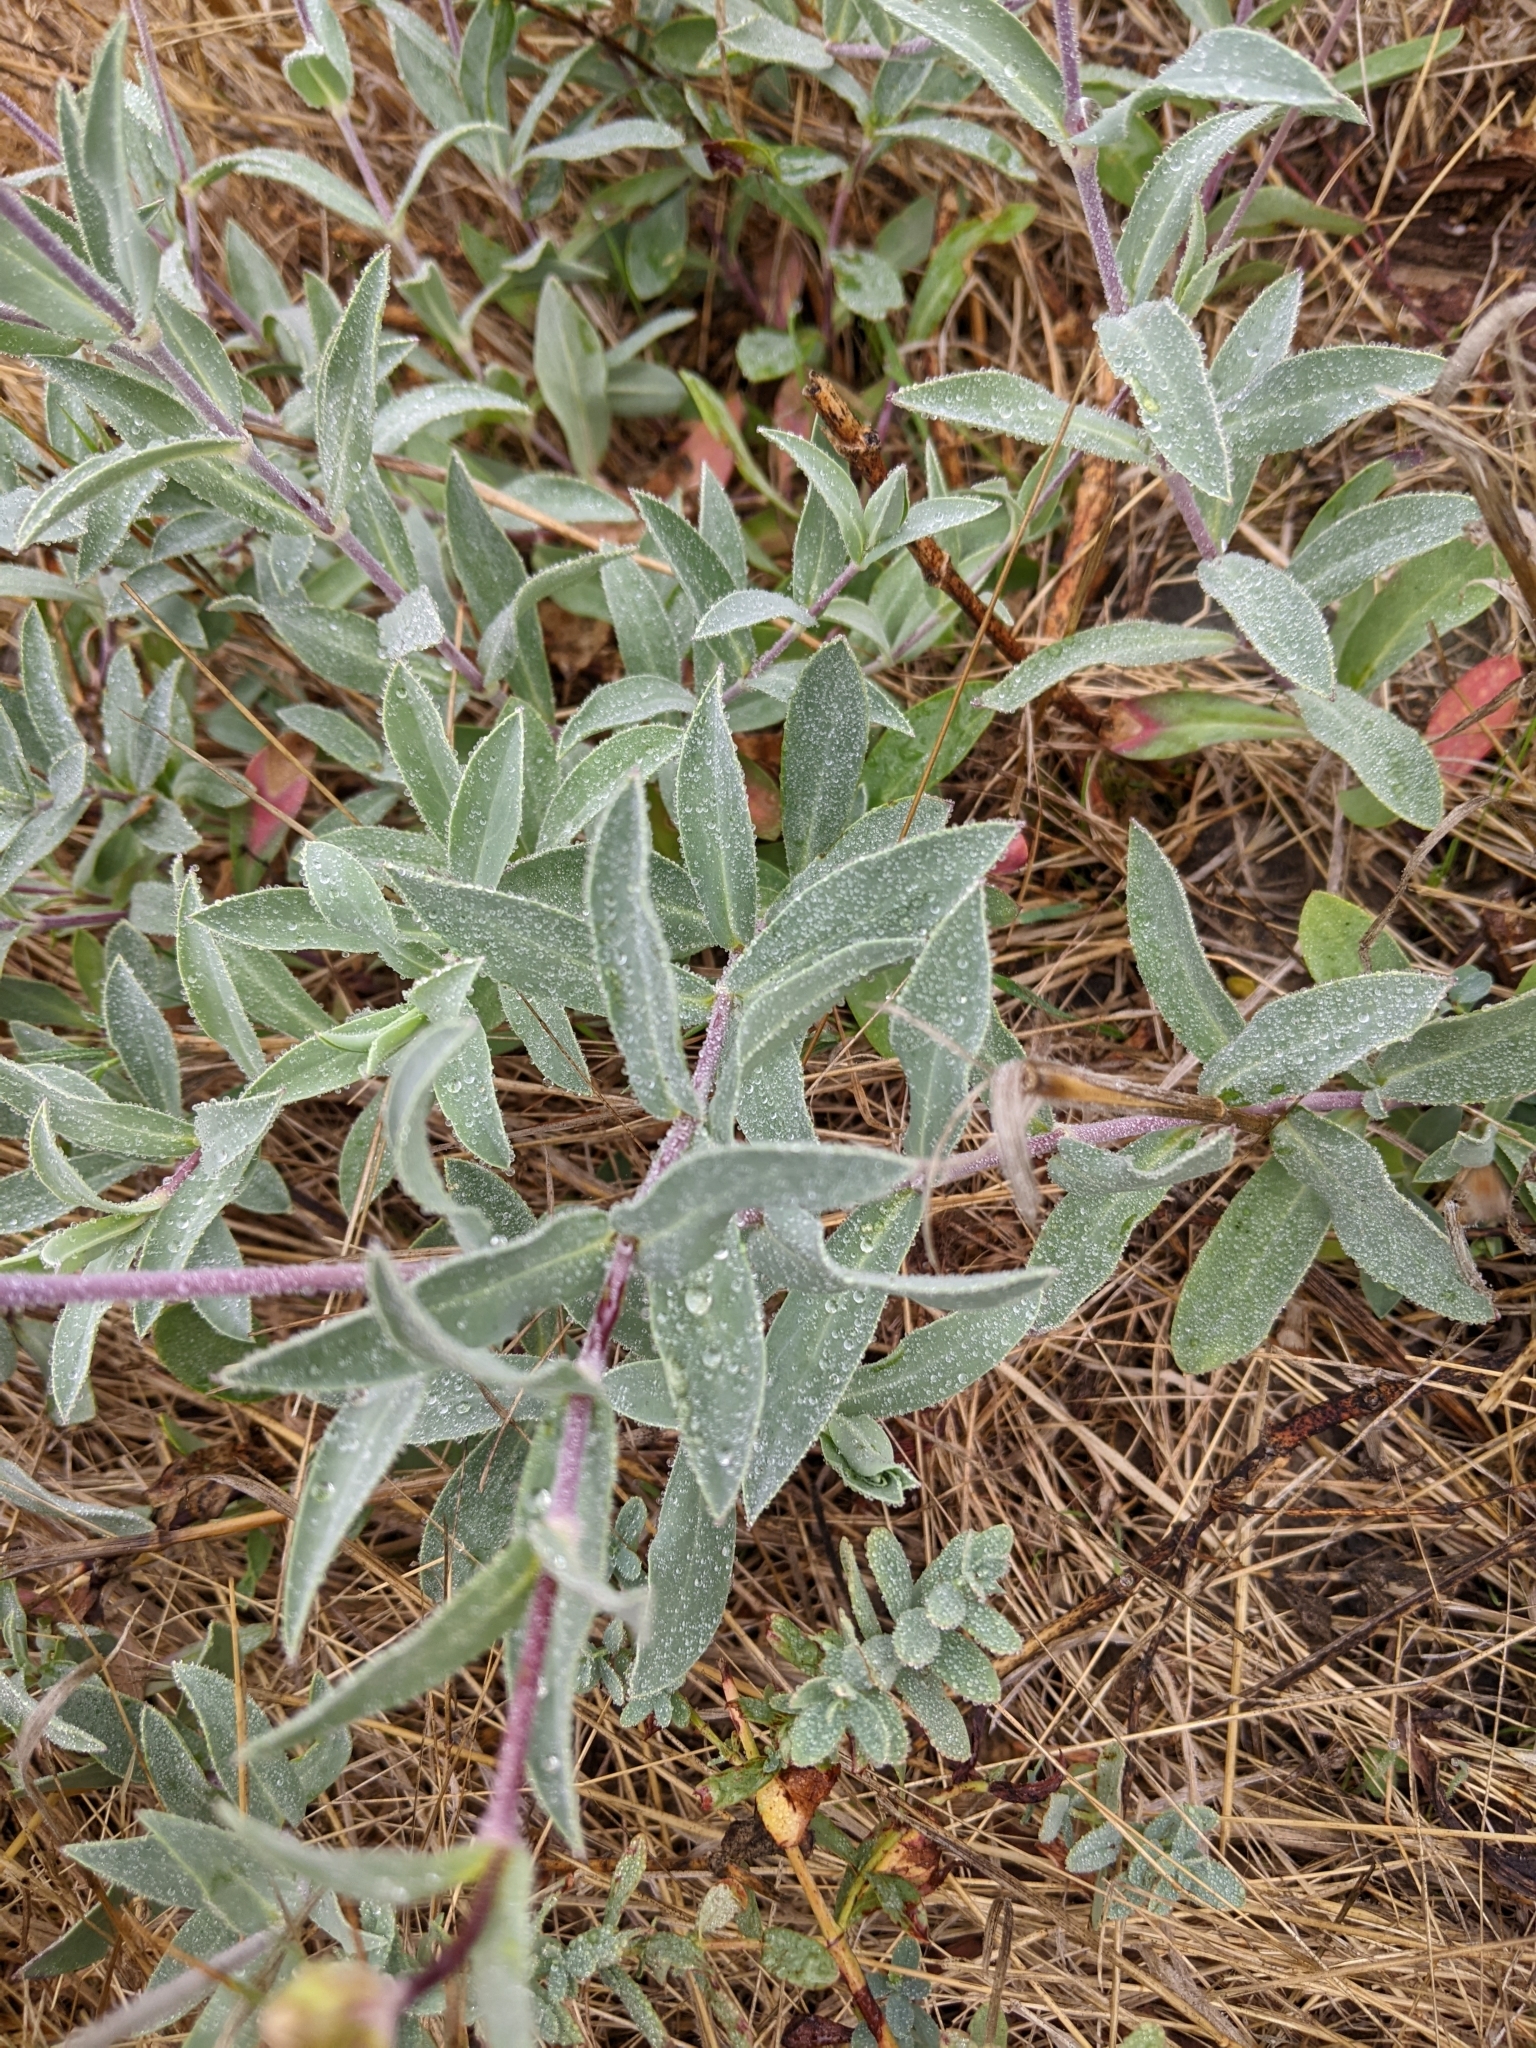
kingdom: Plantae
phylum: Tracheophyta
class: Magnoliopsida
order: Caryophyllales
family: Caryophyllaceae
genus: Silene
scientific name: Silene vulgaris
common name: Bladder campion
